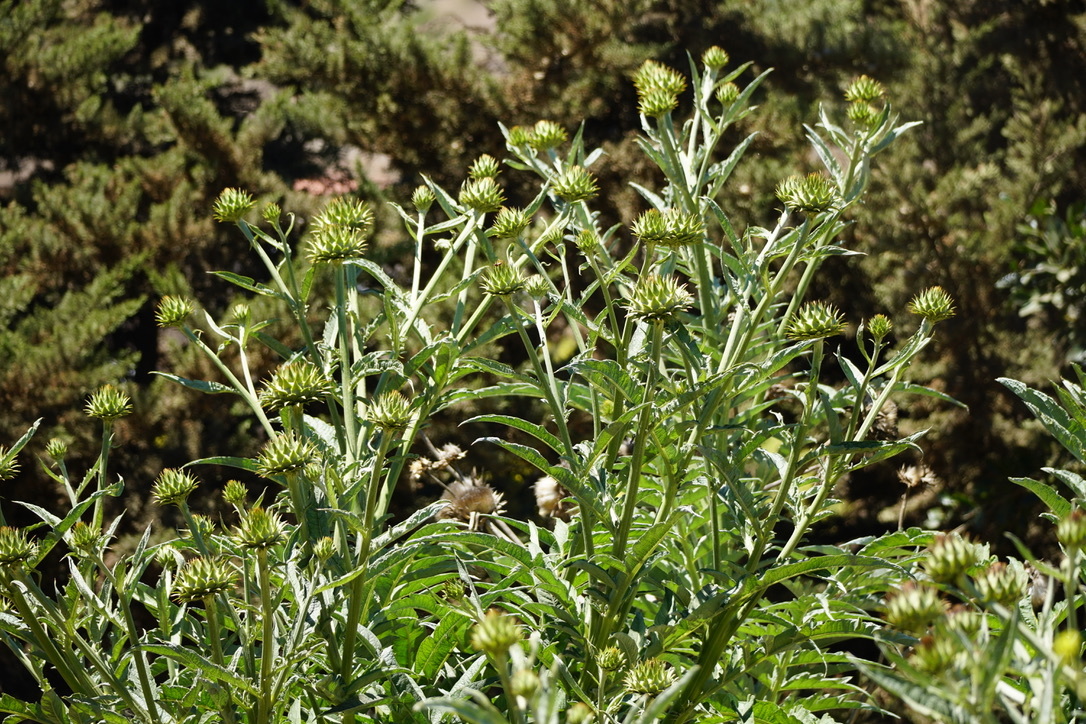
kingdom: Plantae
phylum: Tracheophyta
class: Magnoliopsida
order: Asterales
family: Asteraceae
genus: Cynara
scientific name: Cynara cardunculus
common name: Globe artichoke
